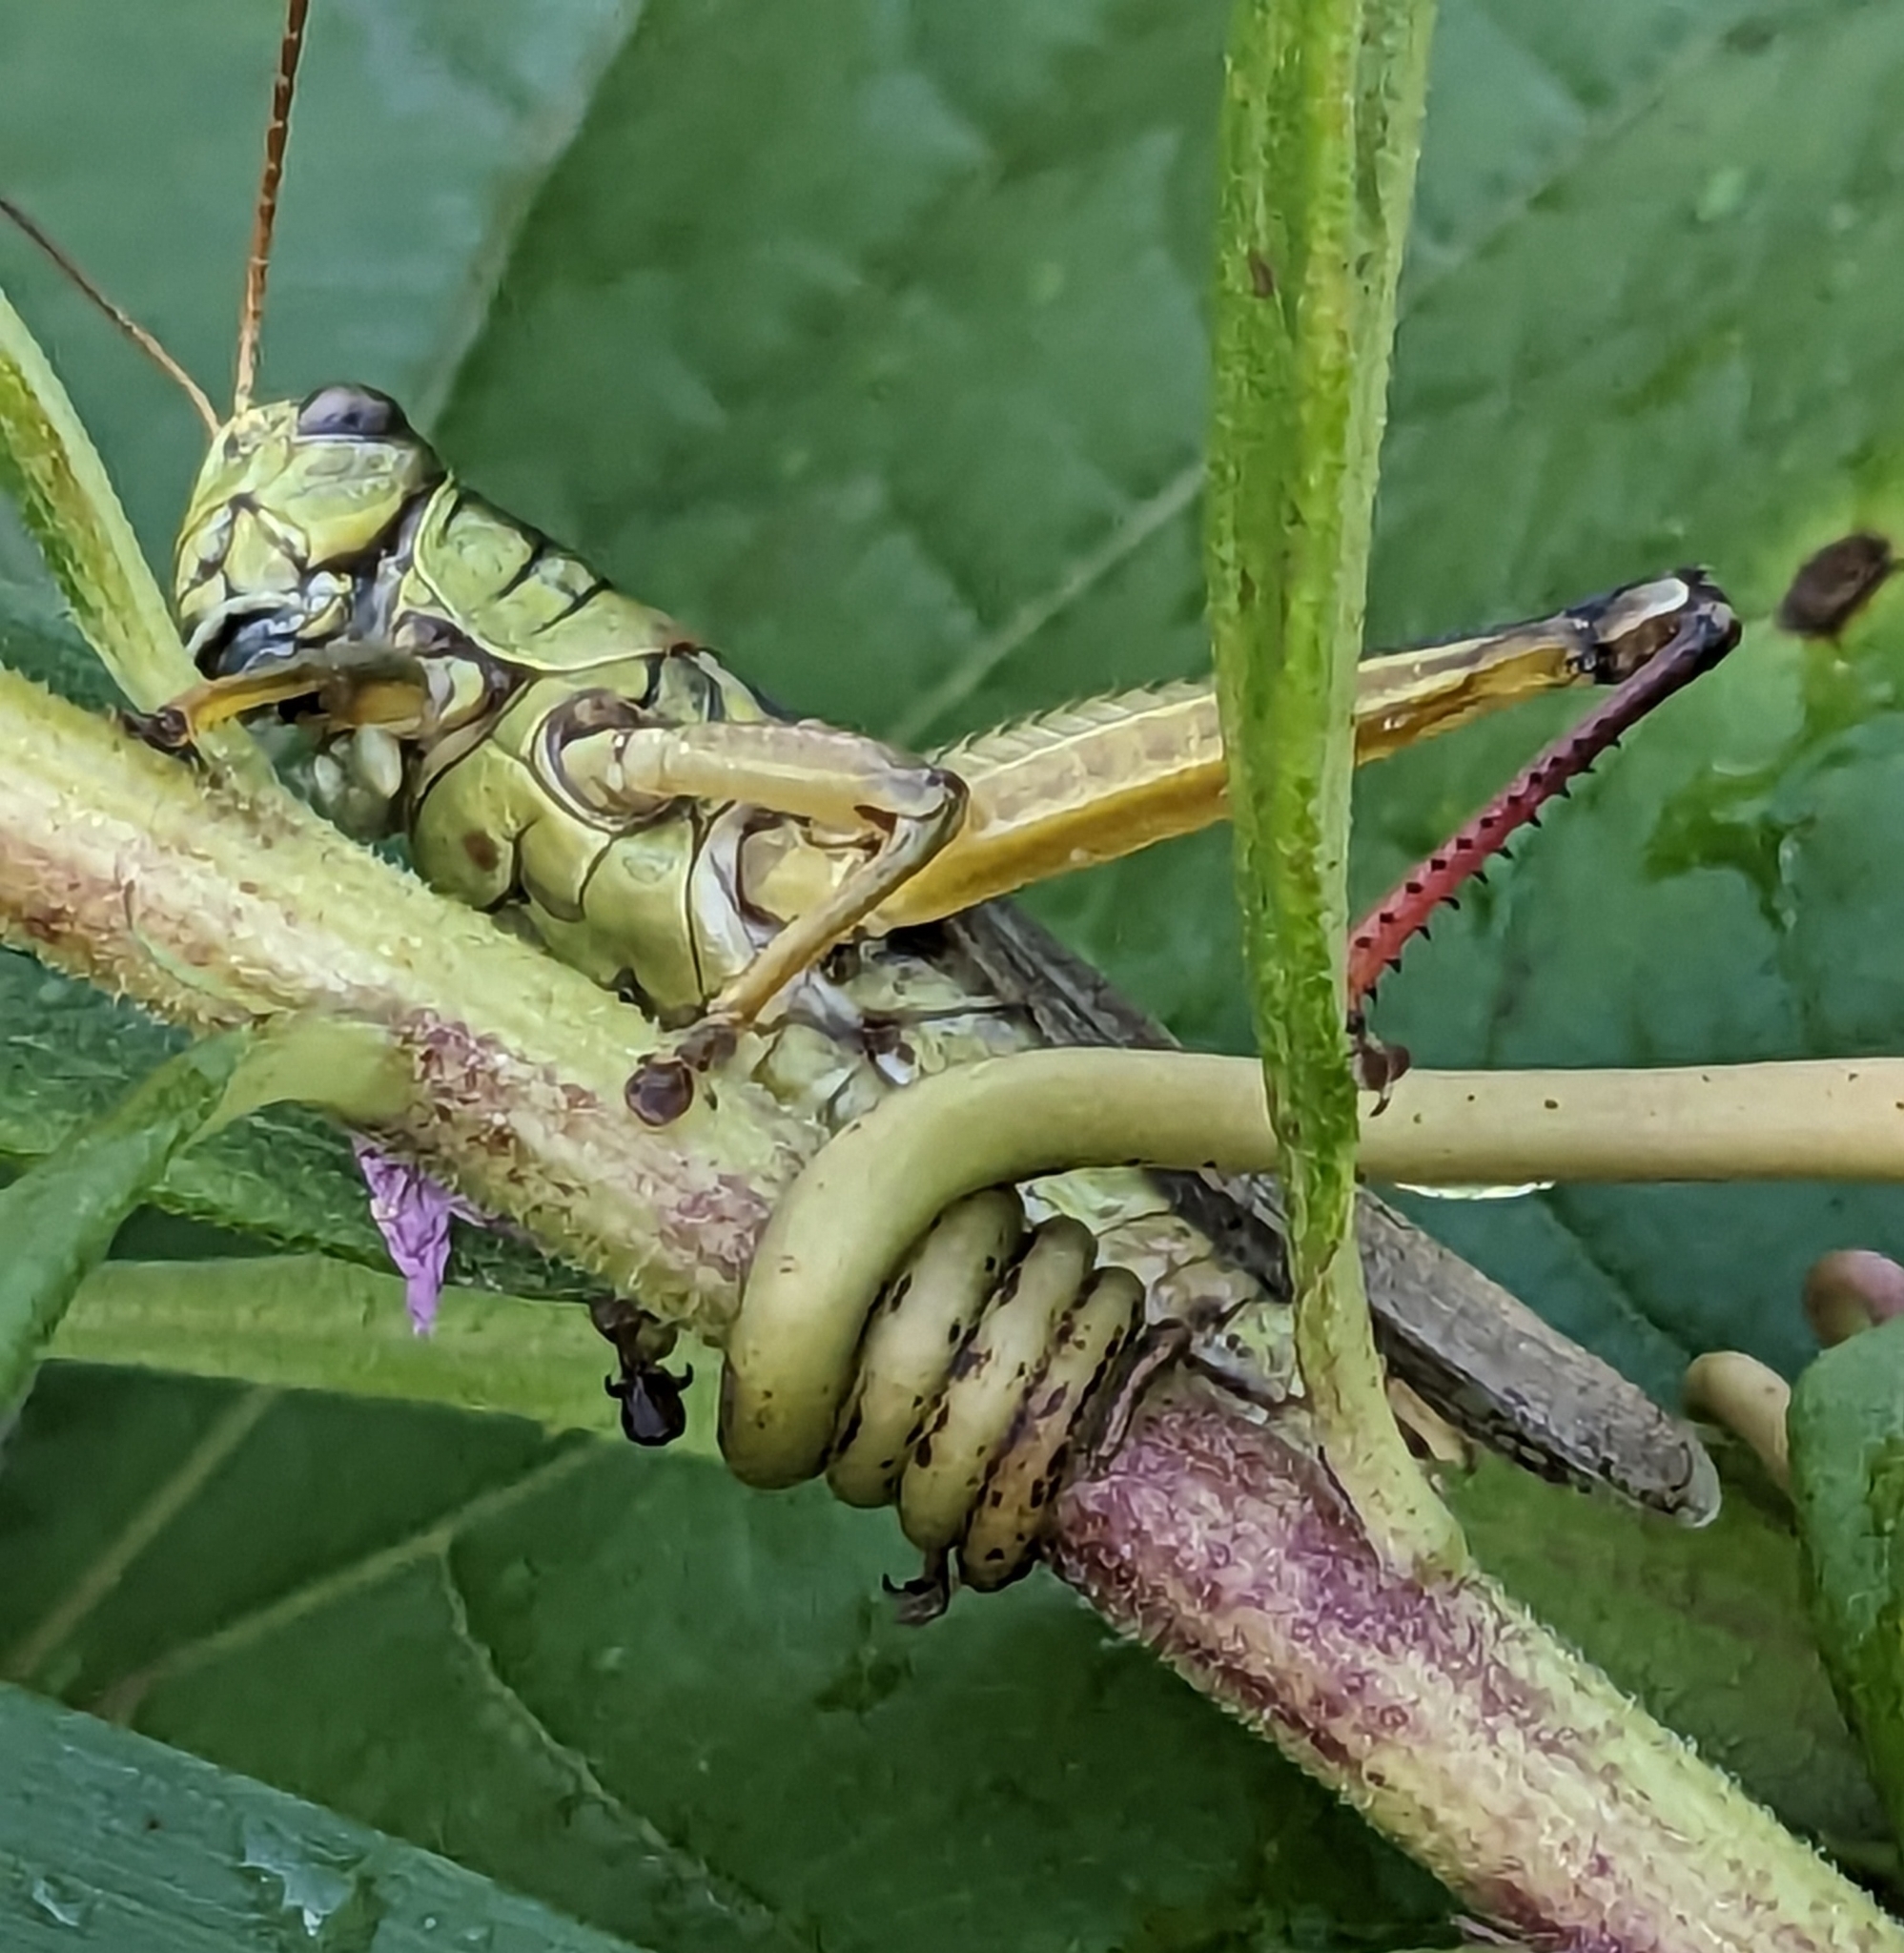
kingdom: Animalia
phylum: Arthropoda
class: Insecta
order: Orthoptera
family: Acrididae
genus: Melanoplus
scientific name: Melanoplus bivittatus
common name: Two-striped grasshopper
